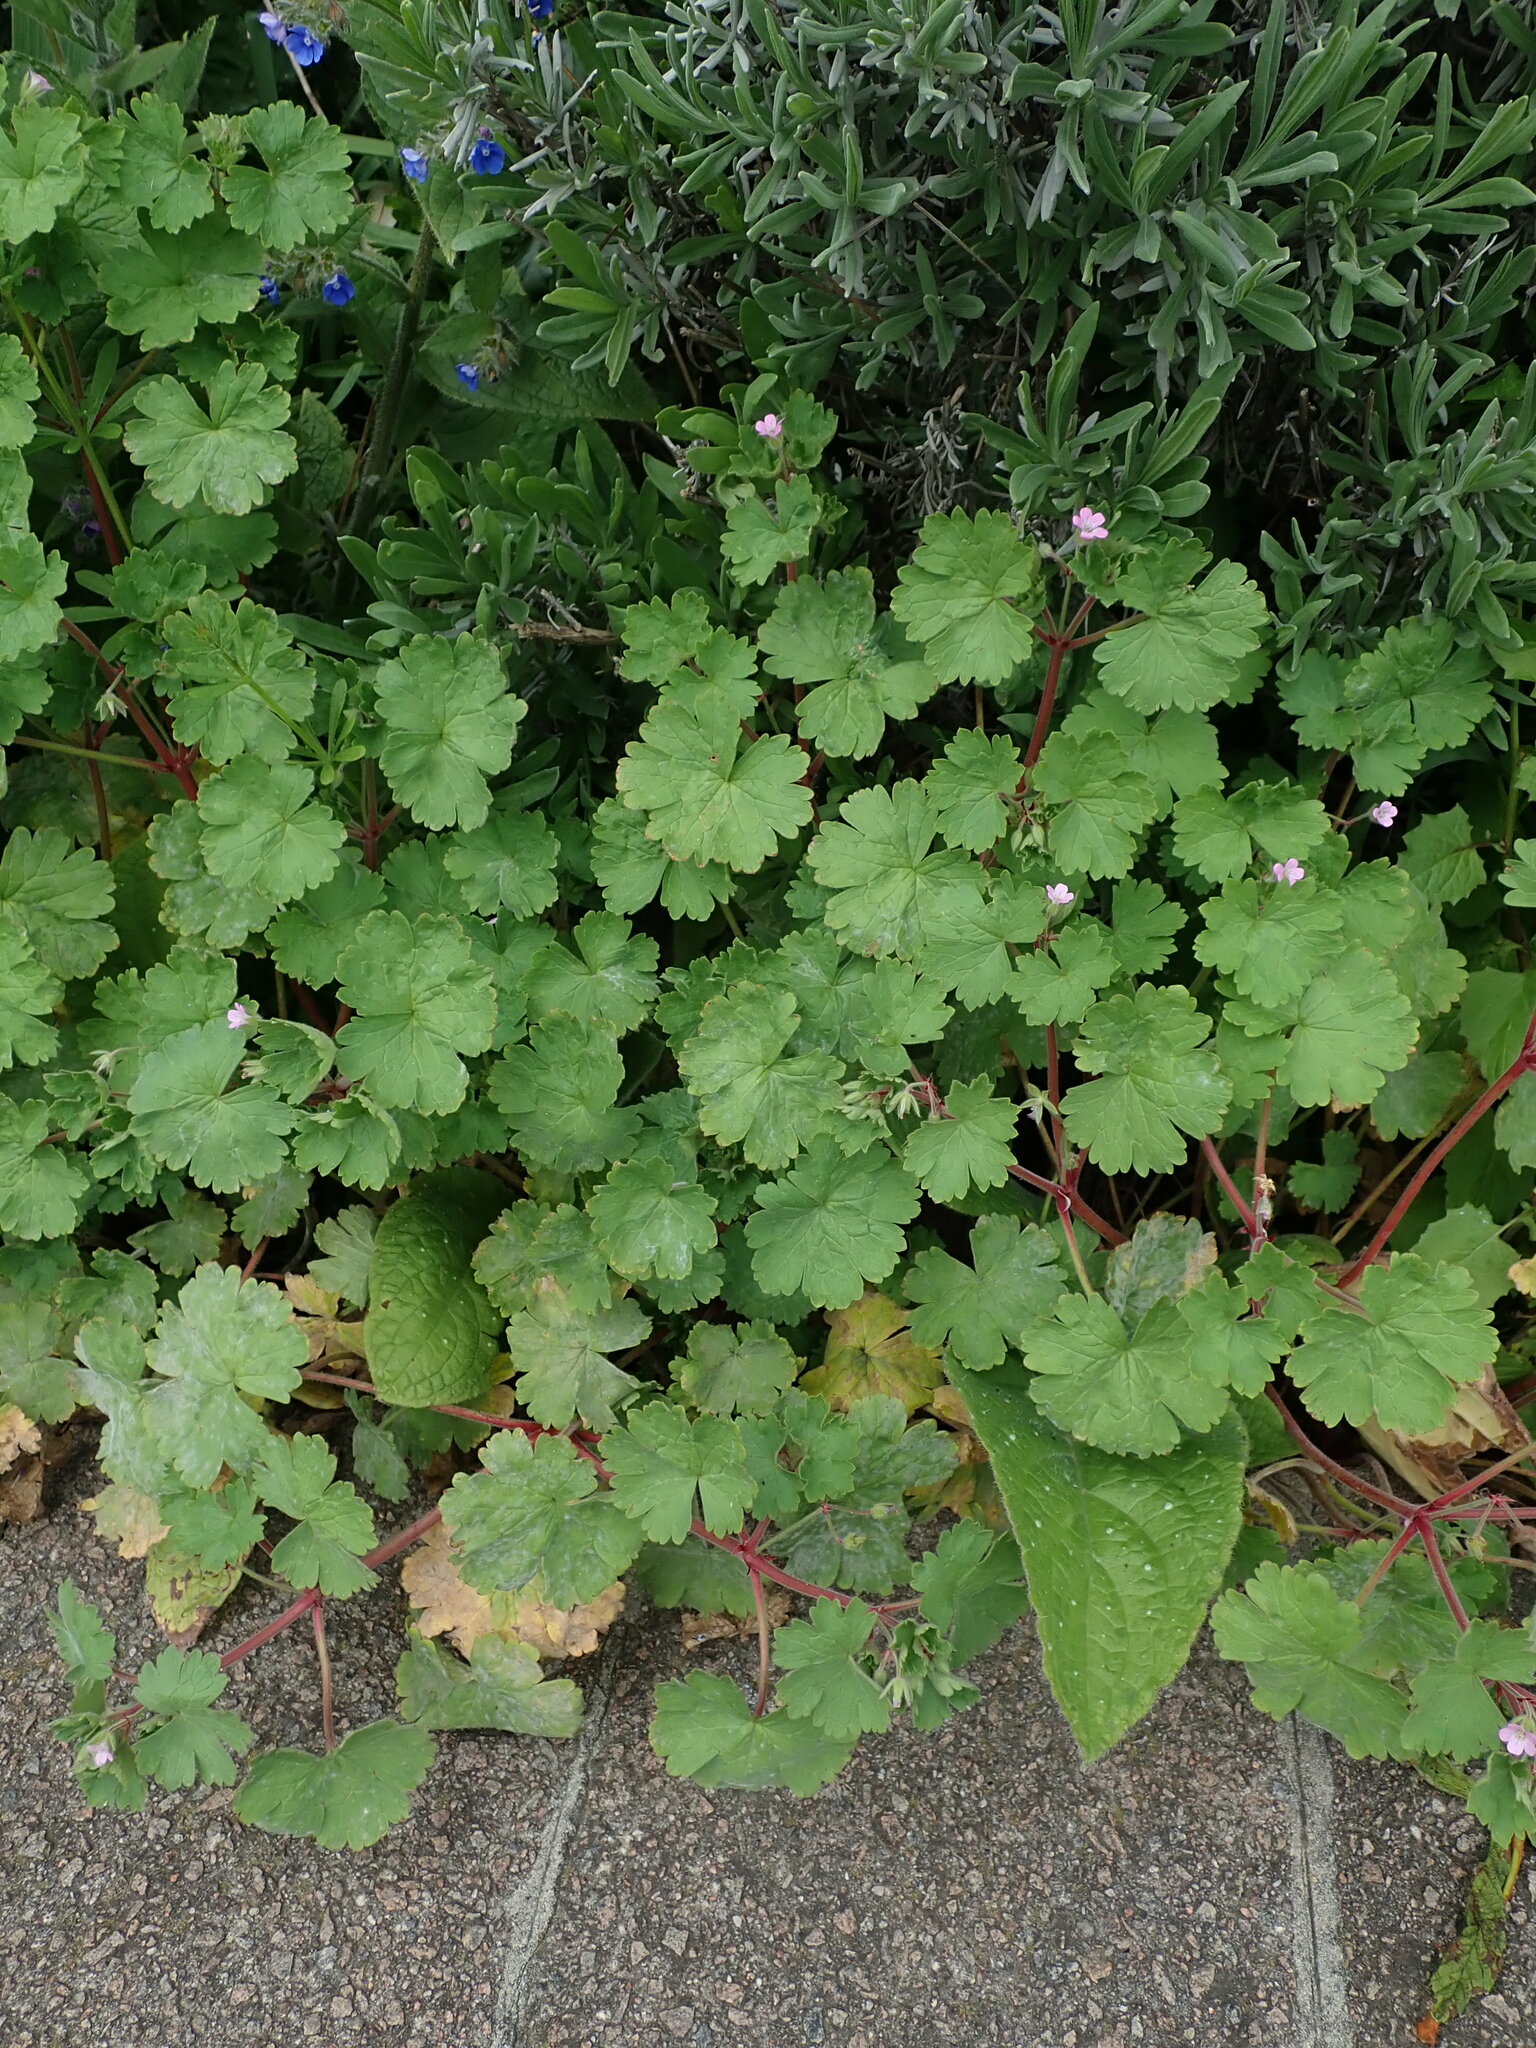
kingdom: Plantae
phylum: Tracheophyta
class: Magnoliopsida
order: Geraniales
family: Geraniaceae
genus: Geranium
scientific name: Geranium rotundifolium
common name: Round-leaved crane's-bill
